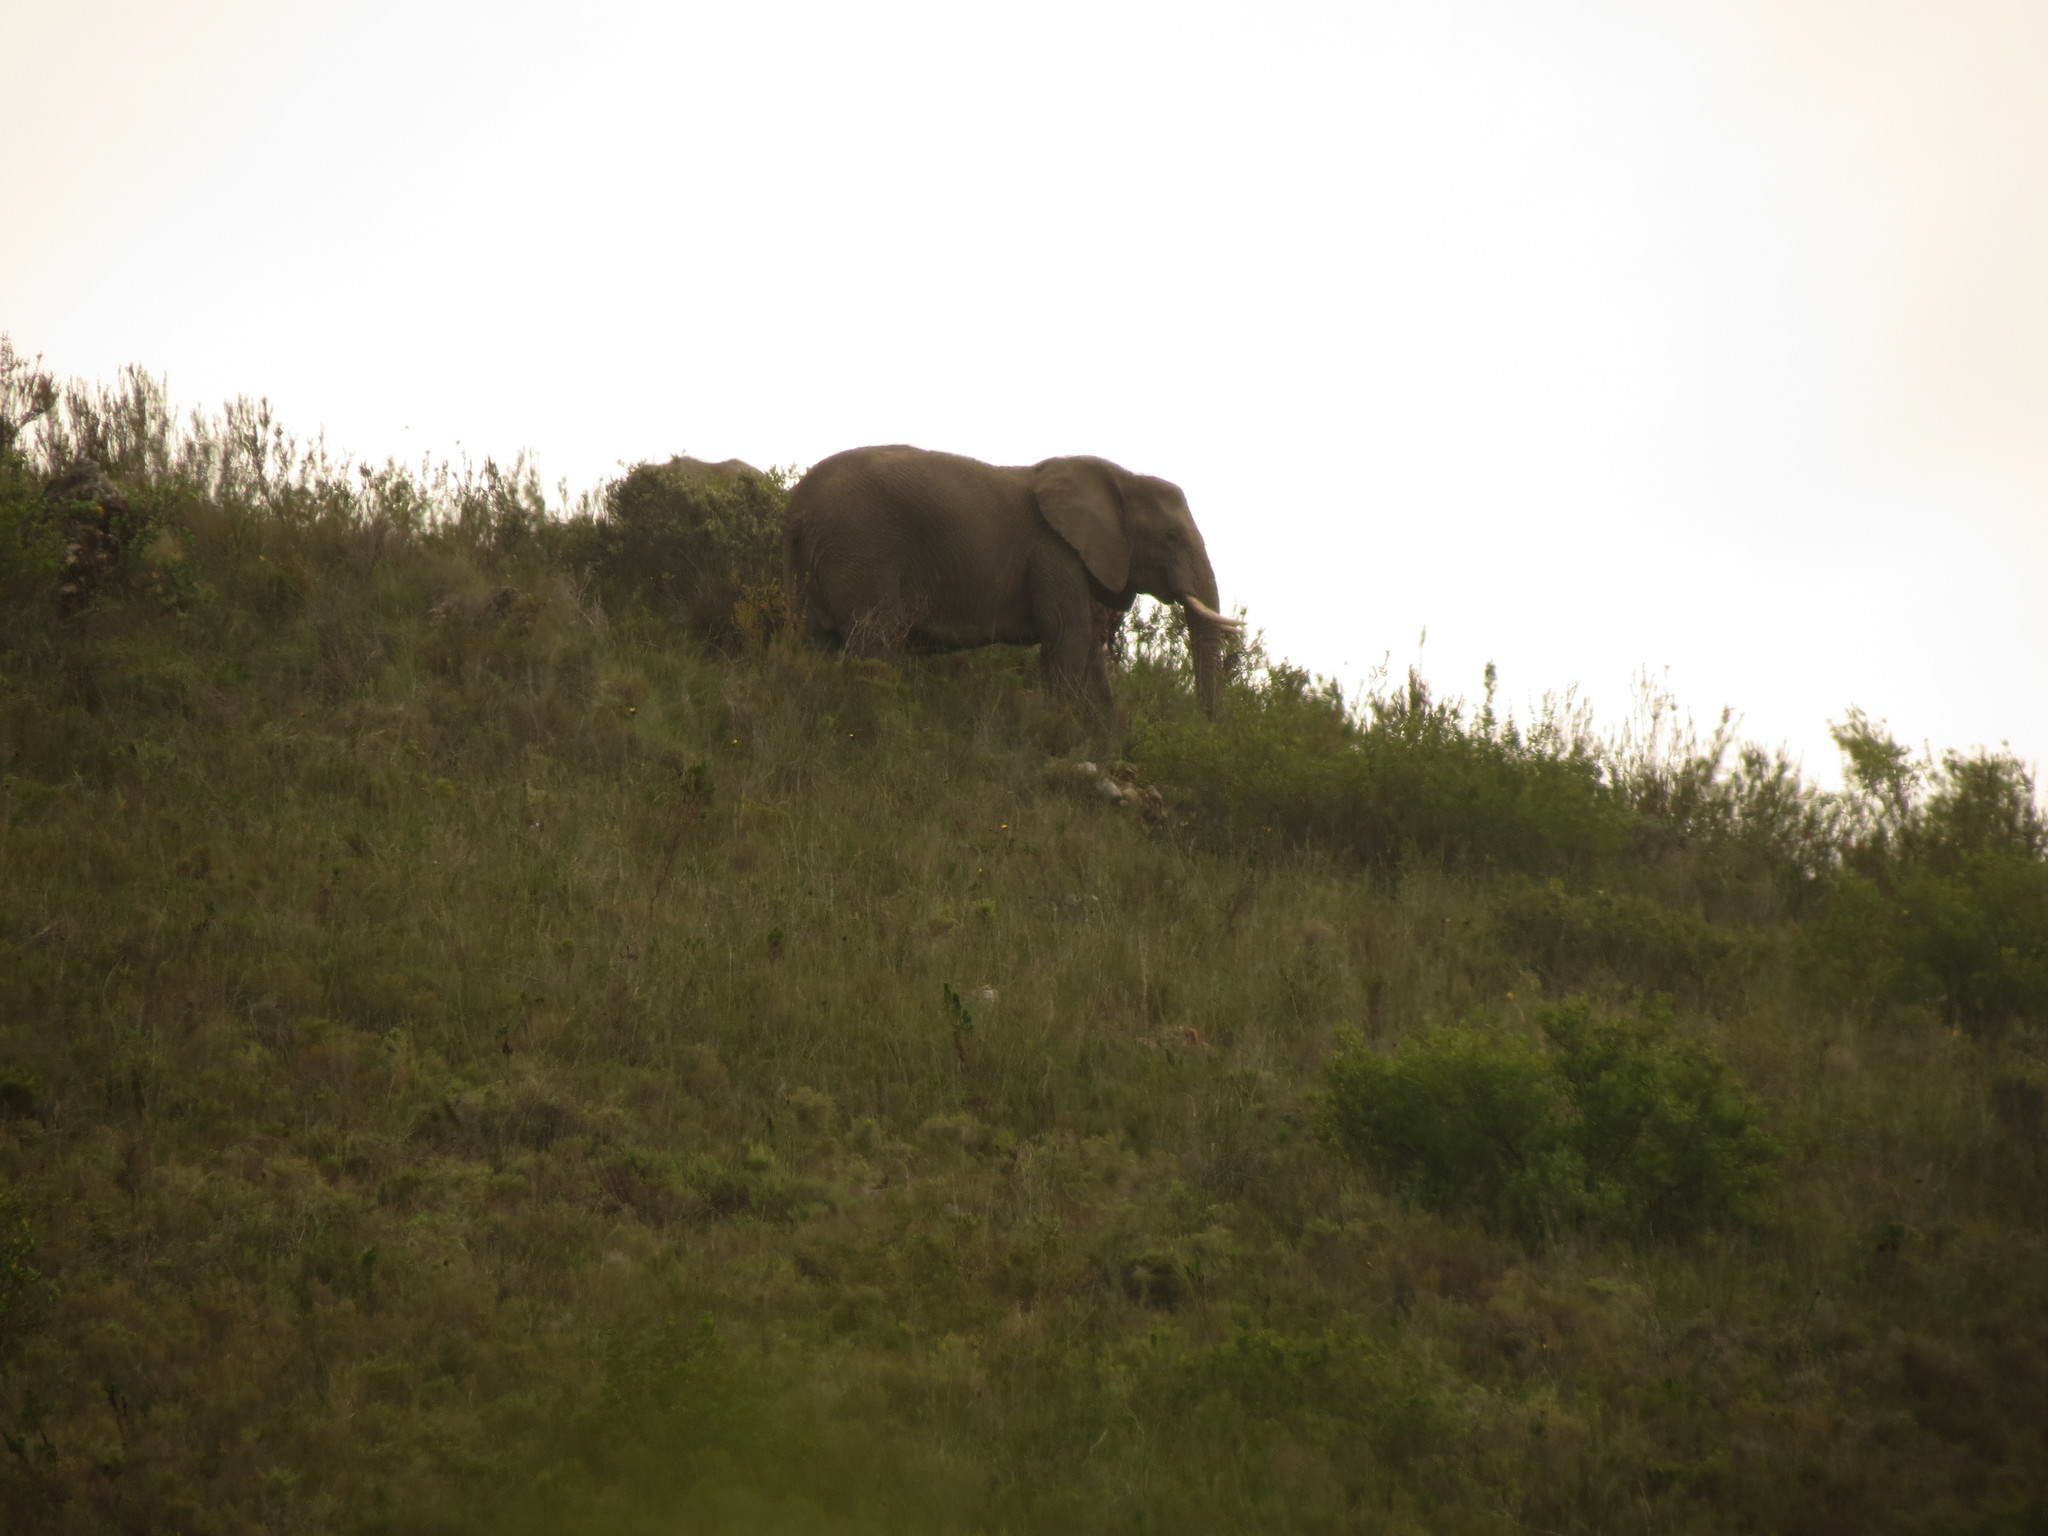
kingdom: Animalia
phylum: Chordata
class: Mammalia
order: Proboscidea
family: Elephantidae
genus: Loxodonta
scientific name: Loxodonta africana
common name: African elephant
